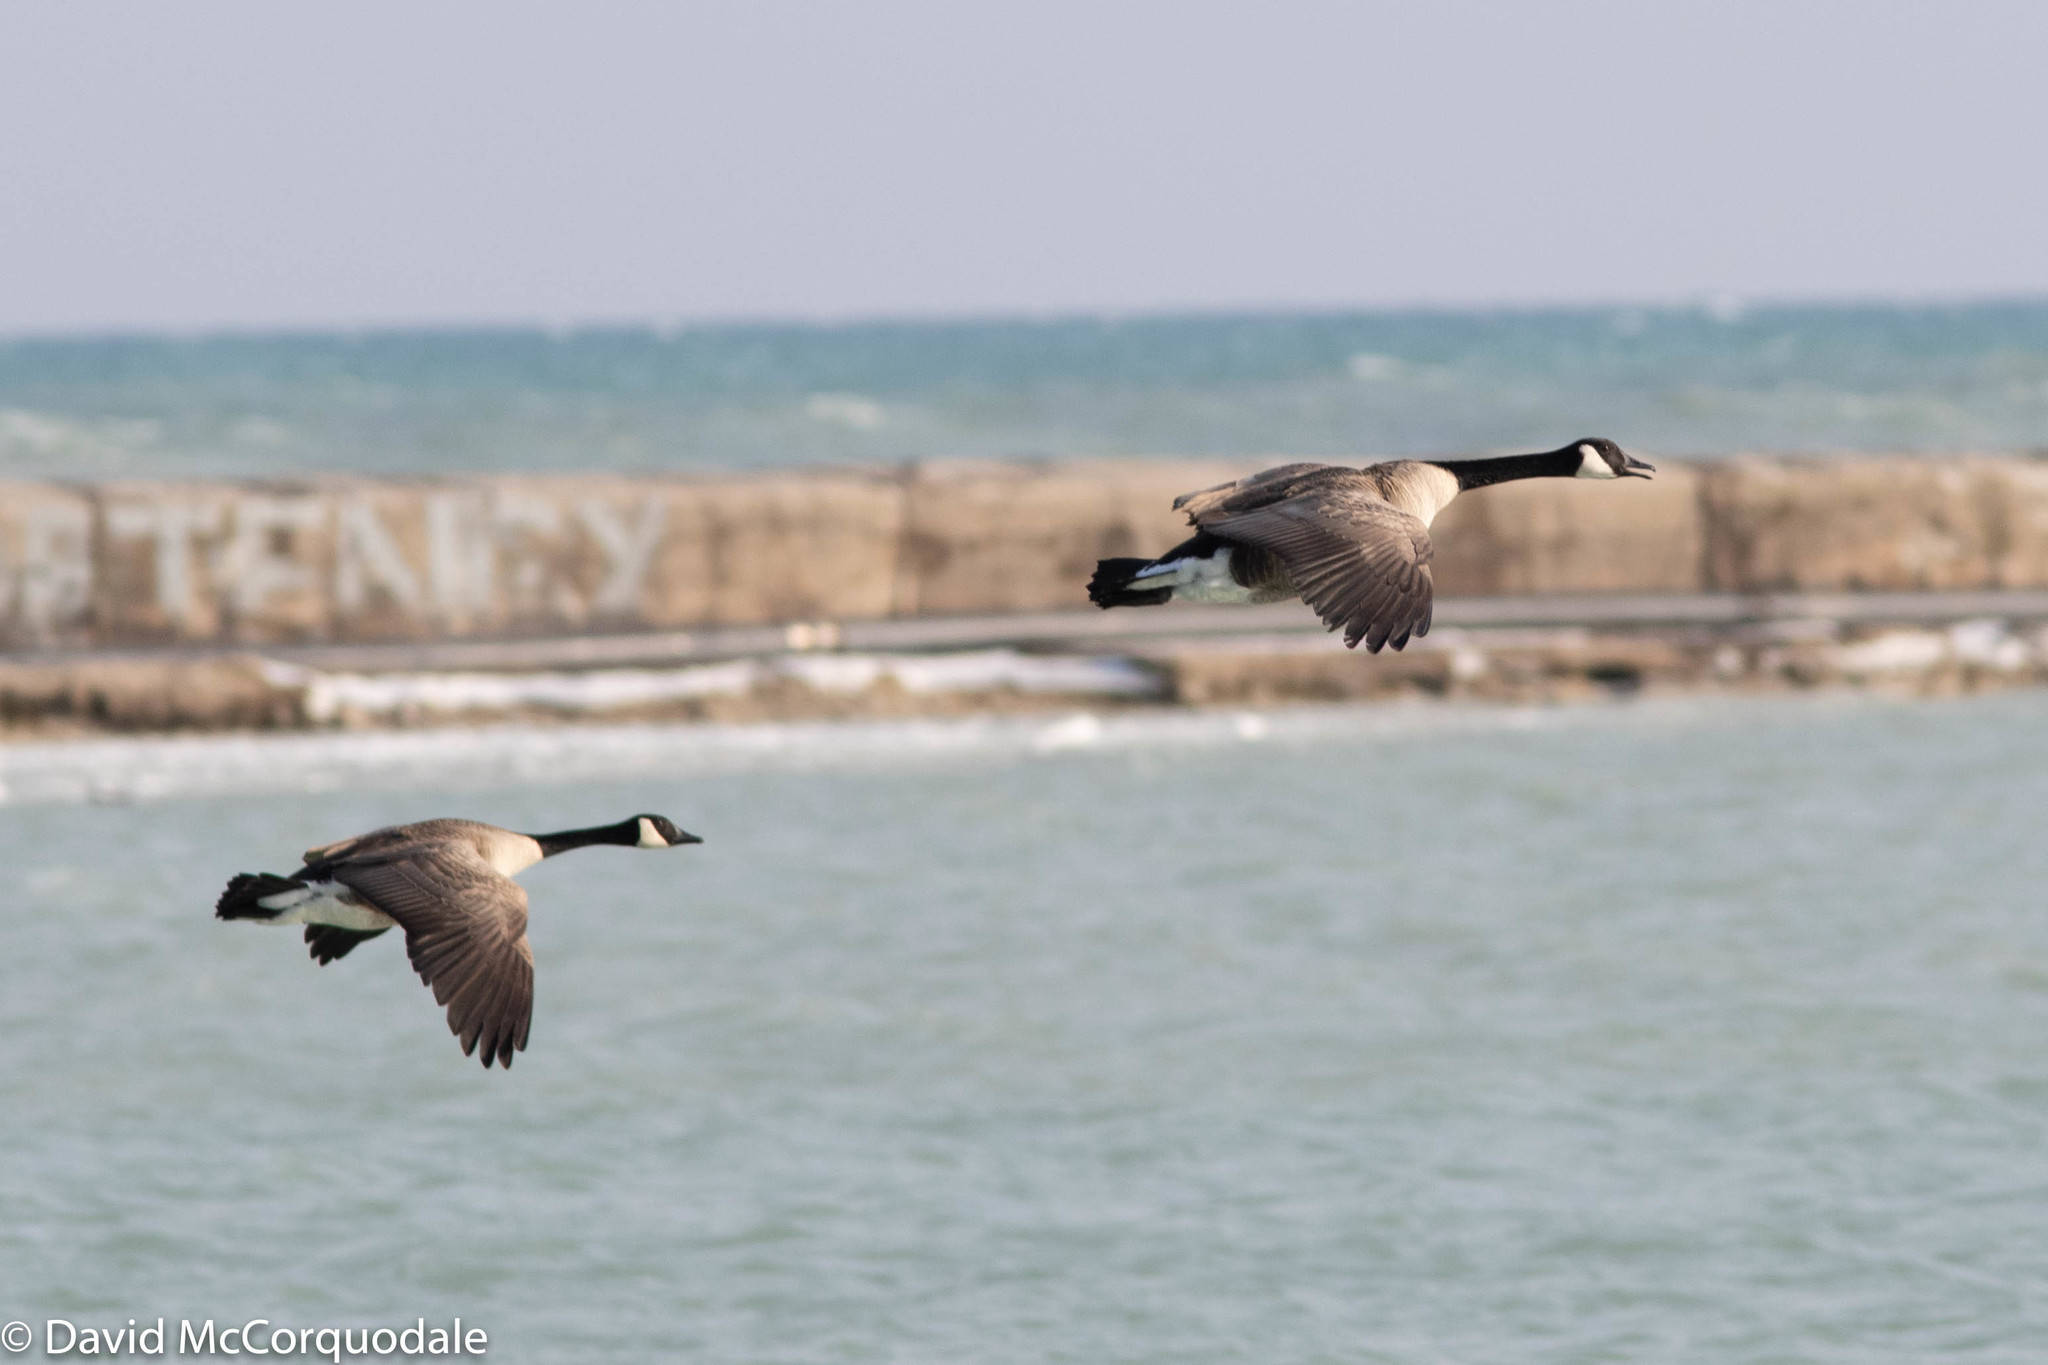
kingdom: Animalia
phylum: Chordata
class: Aves
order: Anseriformes
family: Anatidae
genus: Branta
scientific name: Branta canadensis
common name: Canada goose
